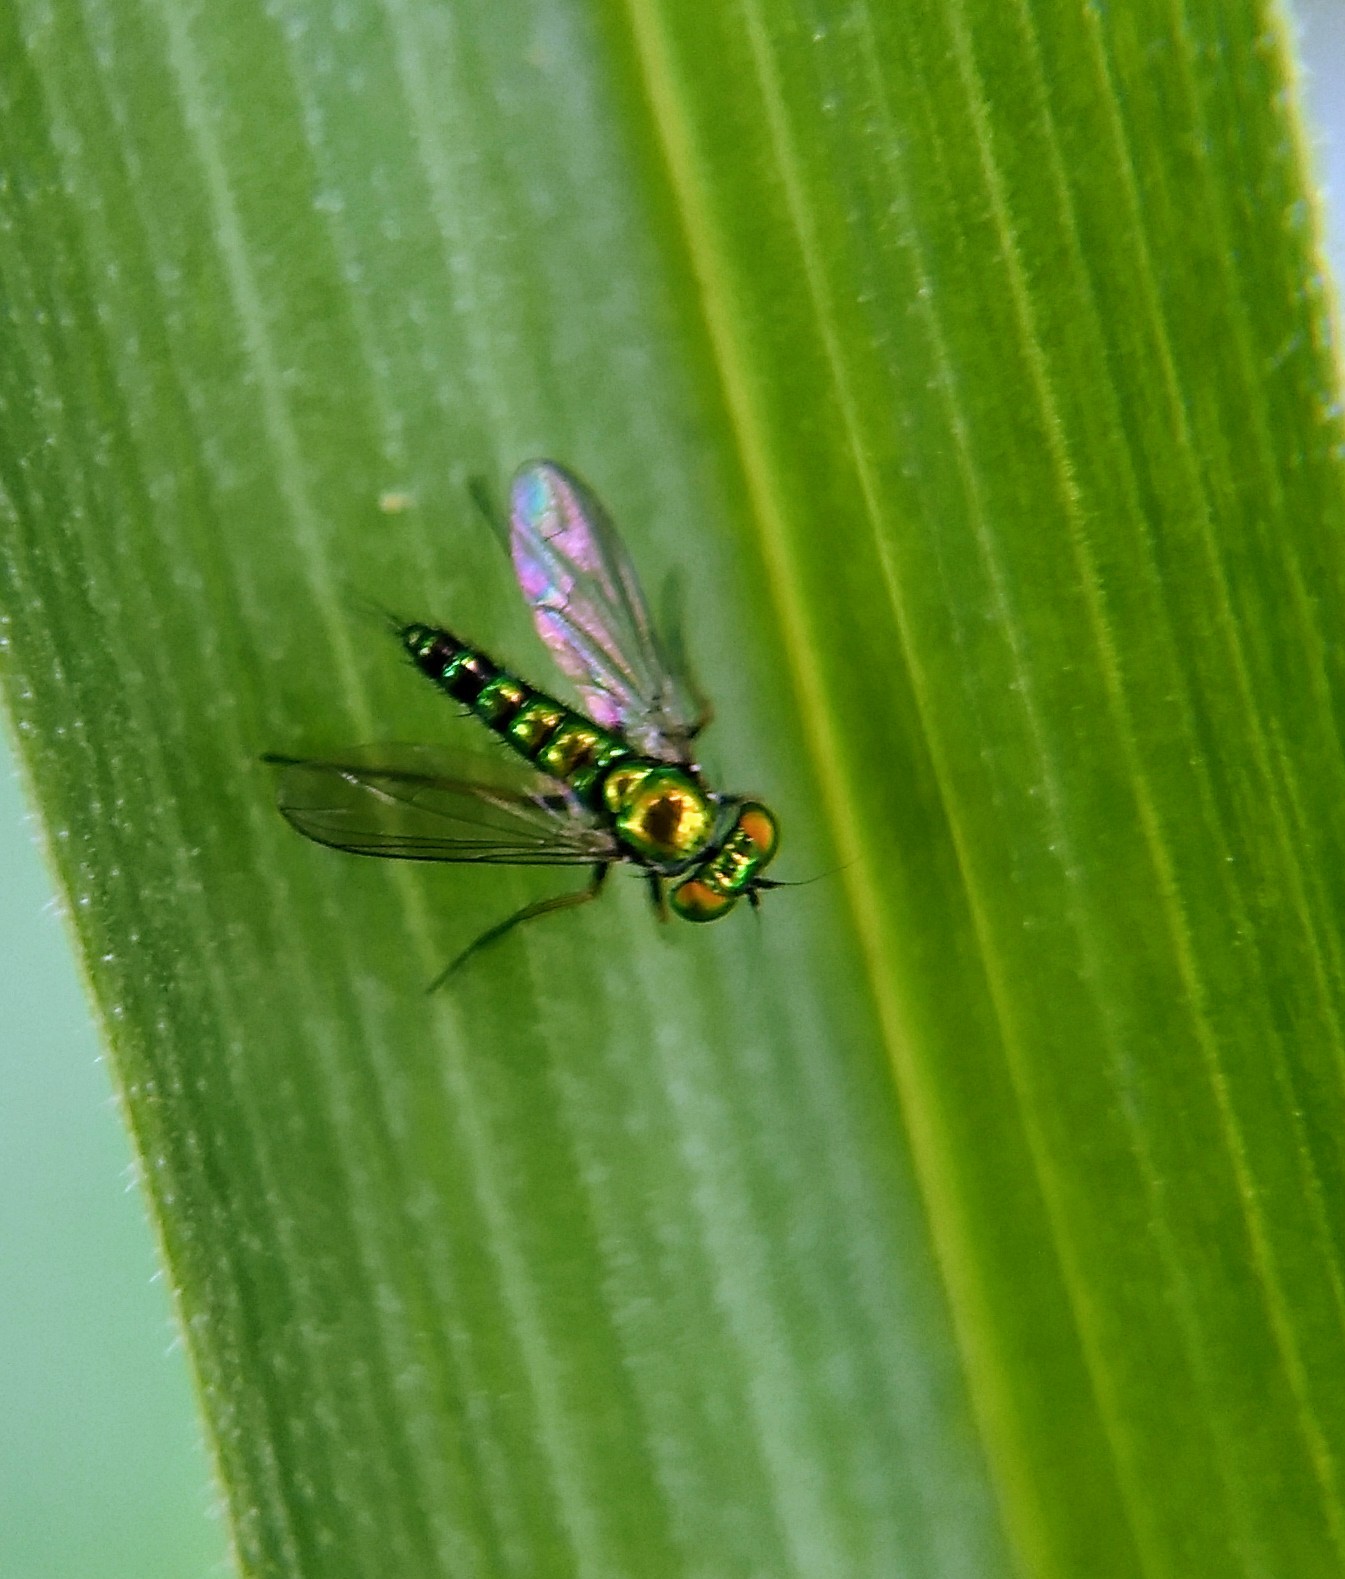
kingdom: Animalia
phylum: Arthropoda
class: Insecta
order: Diptera
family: Dolichopodidae
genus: Condylostylus
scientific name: Condylostylus caudatus
